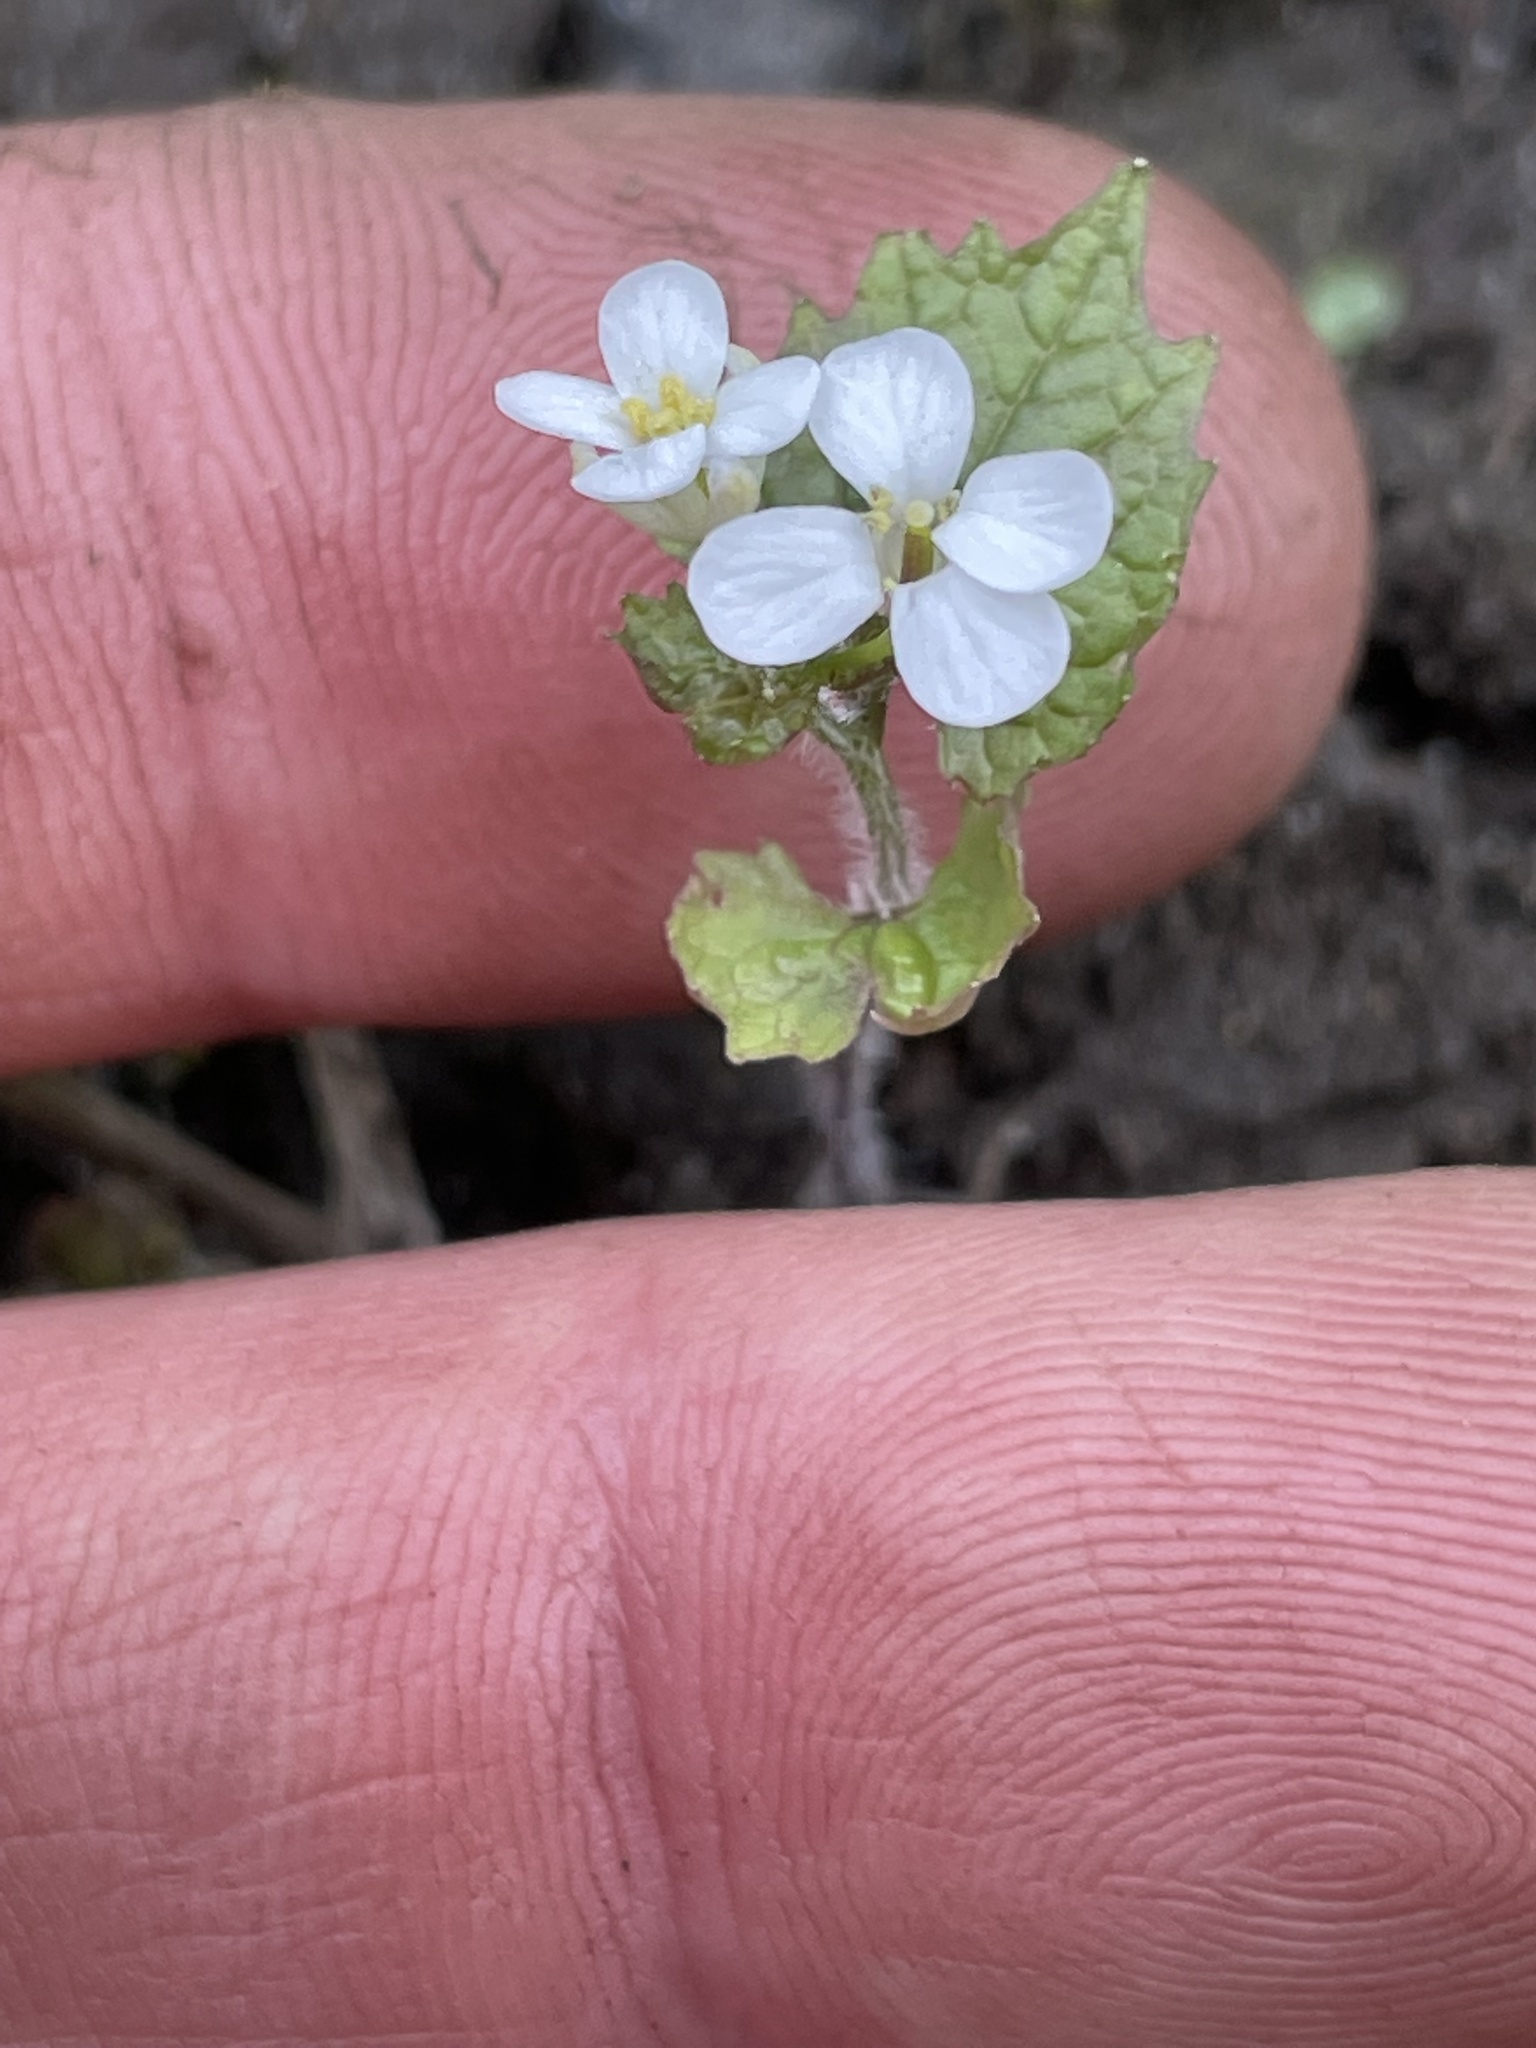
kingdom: Plantae
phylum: Tracheophyta
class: Magnoliopsida
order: Brassicales
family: Brassicaceae
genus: Alliaria
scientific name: Alliaria petiolata
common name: Garlic mustard
